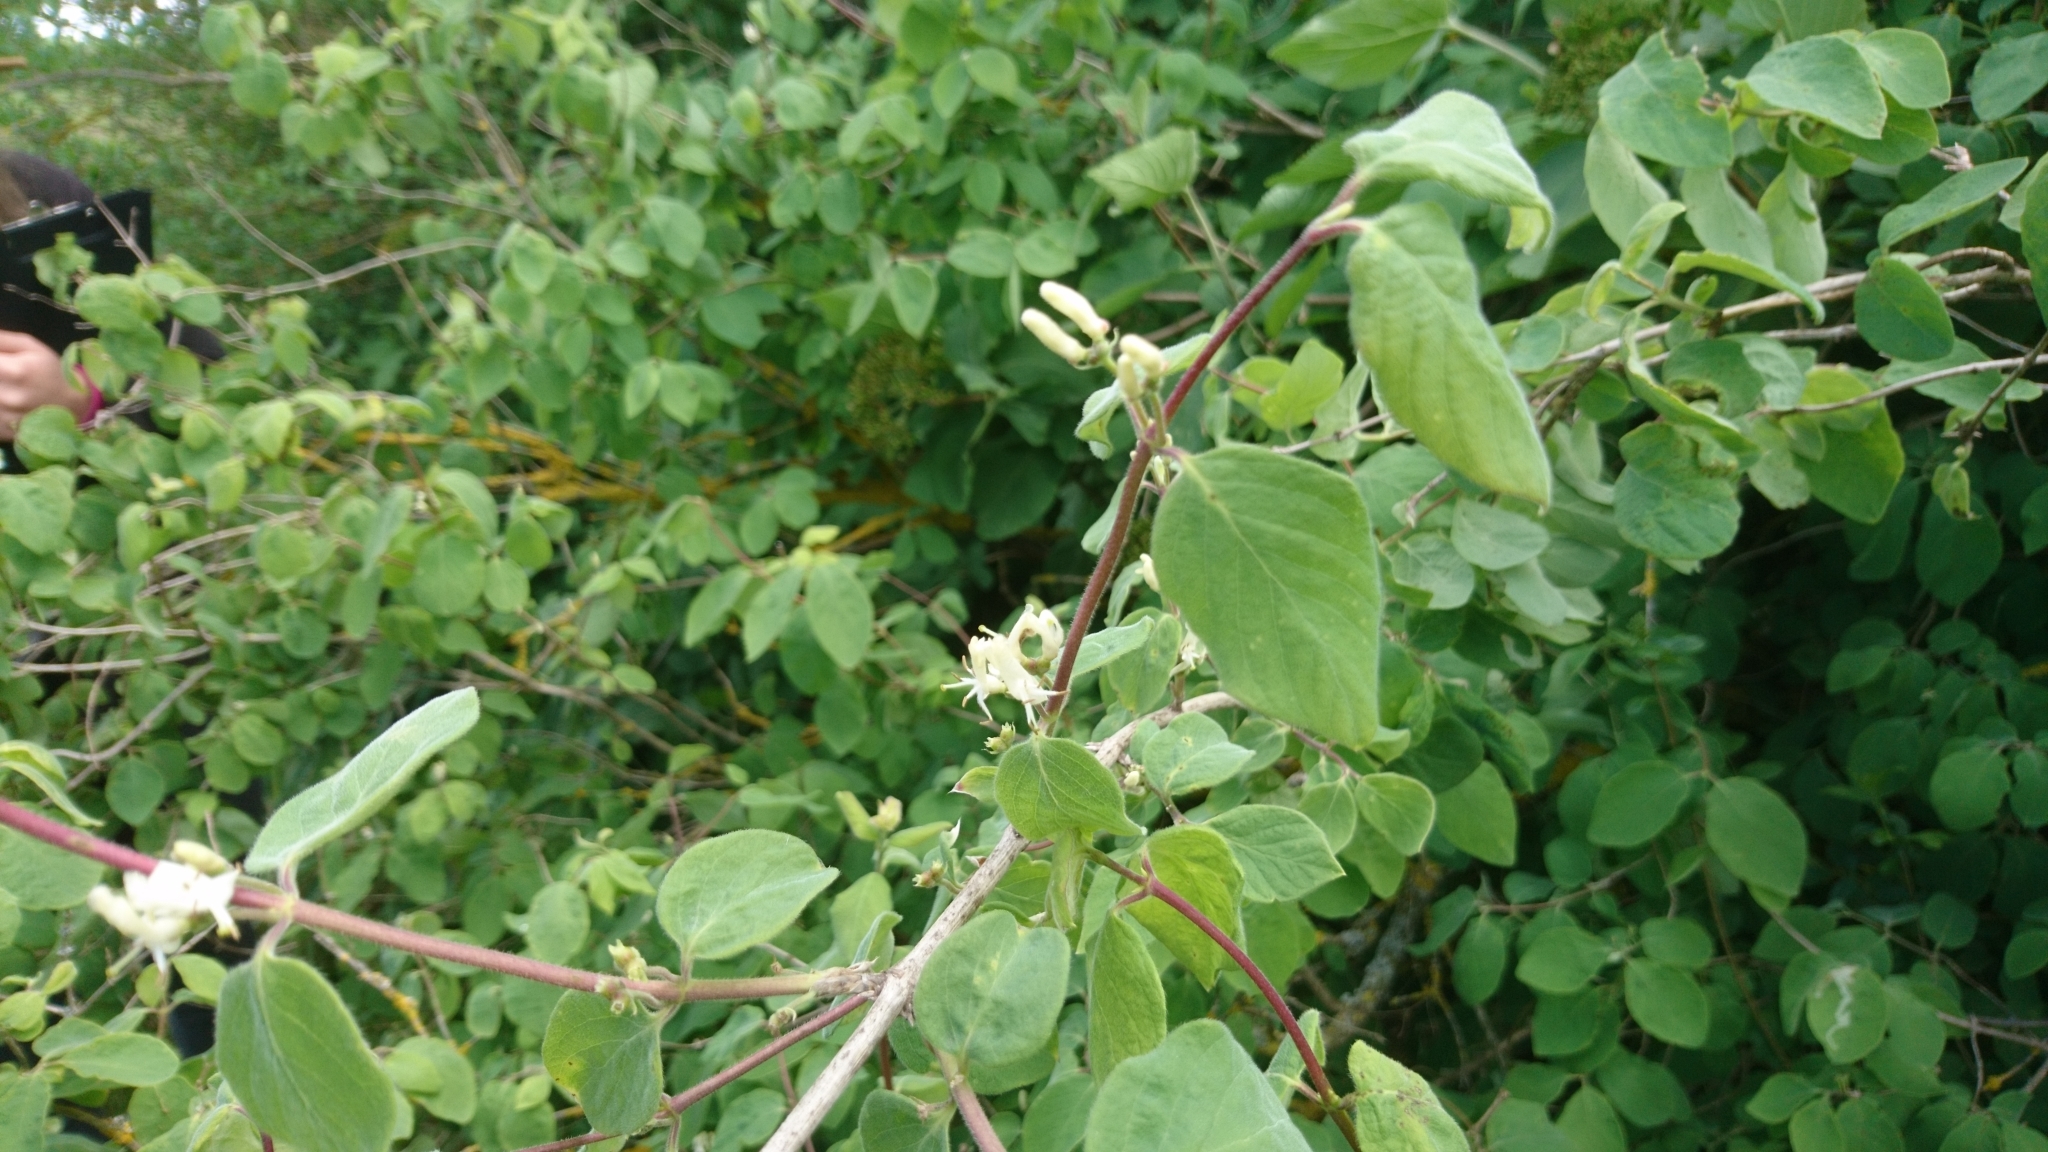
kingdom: Plantae
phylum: Tracheophyta
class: Magnoliopsida
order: Dipsacales
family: Caprifoliaceae
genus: Lonicera
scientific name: Lonicera xylosteum
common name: Fly honeysuckle
